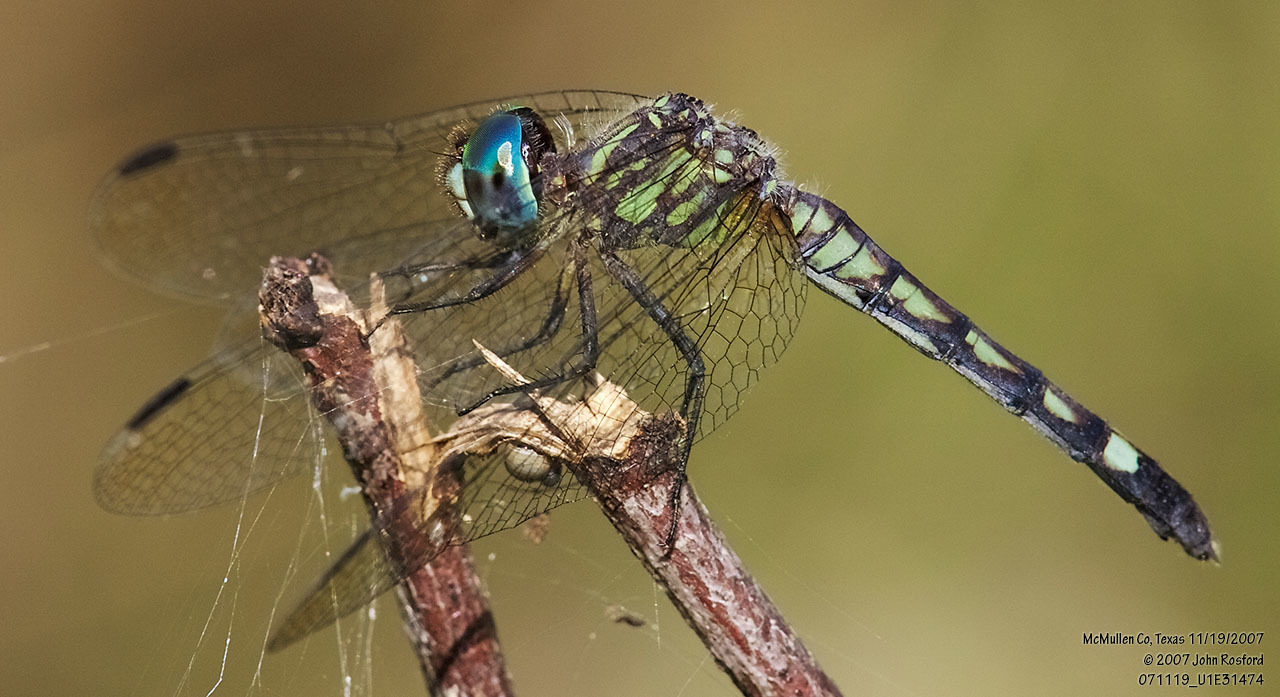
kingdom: Animalia
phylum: Arthropoda
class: Insecta
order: Odonata
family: Libellulidae
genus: Micrathyria
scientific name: Micrathyria hagenii
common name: Thornbush dasher
